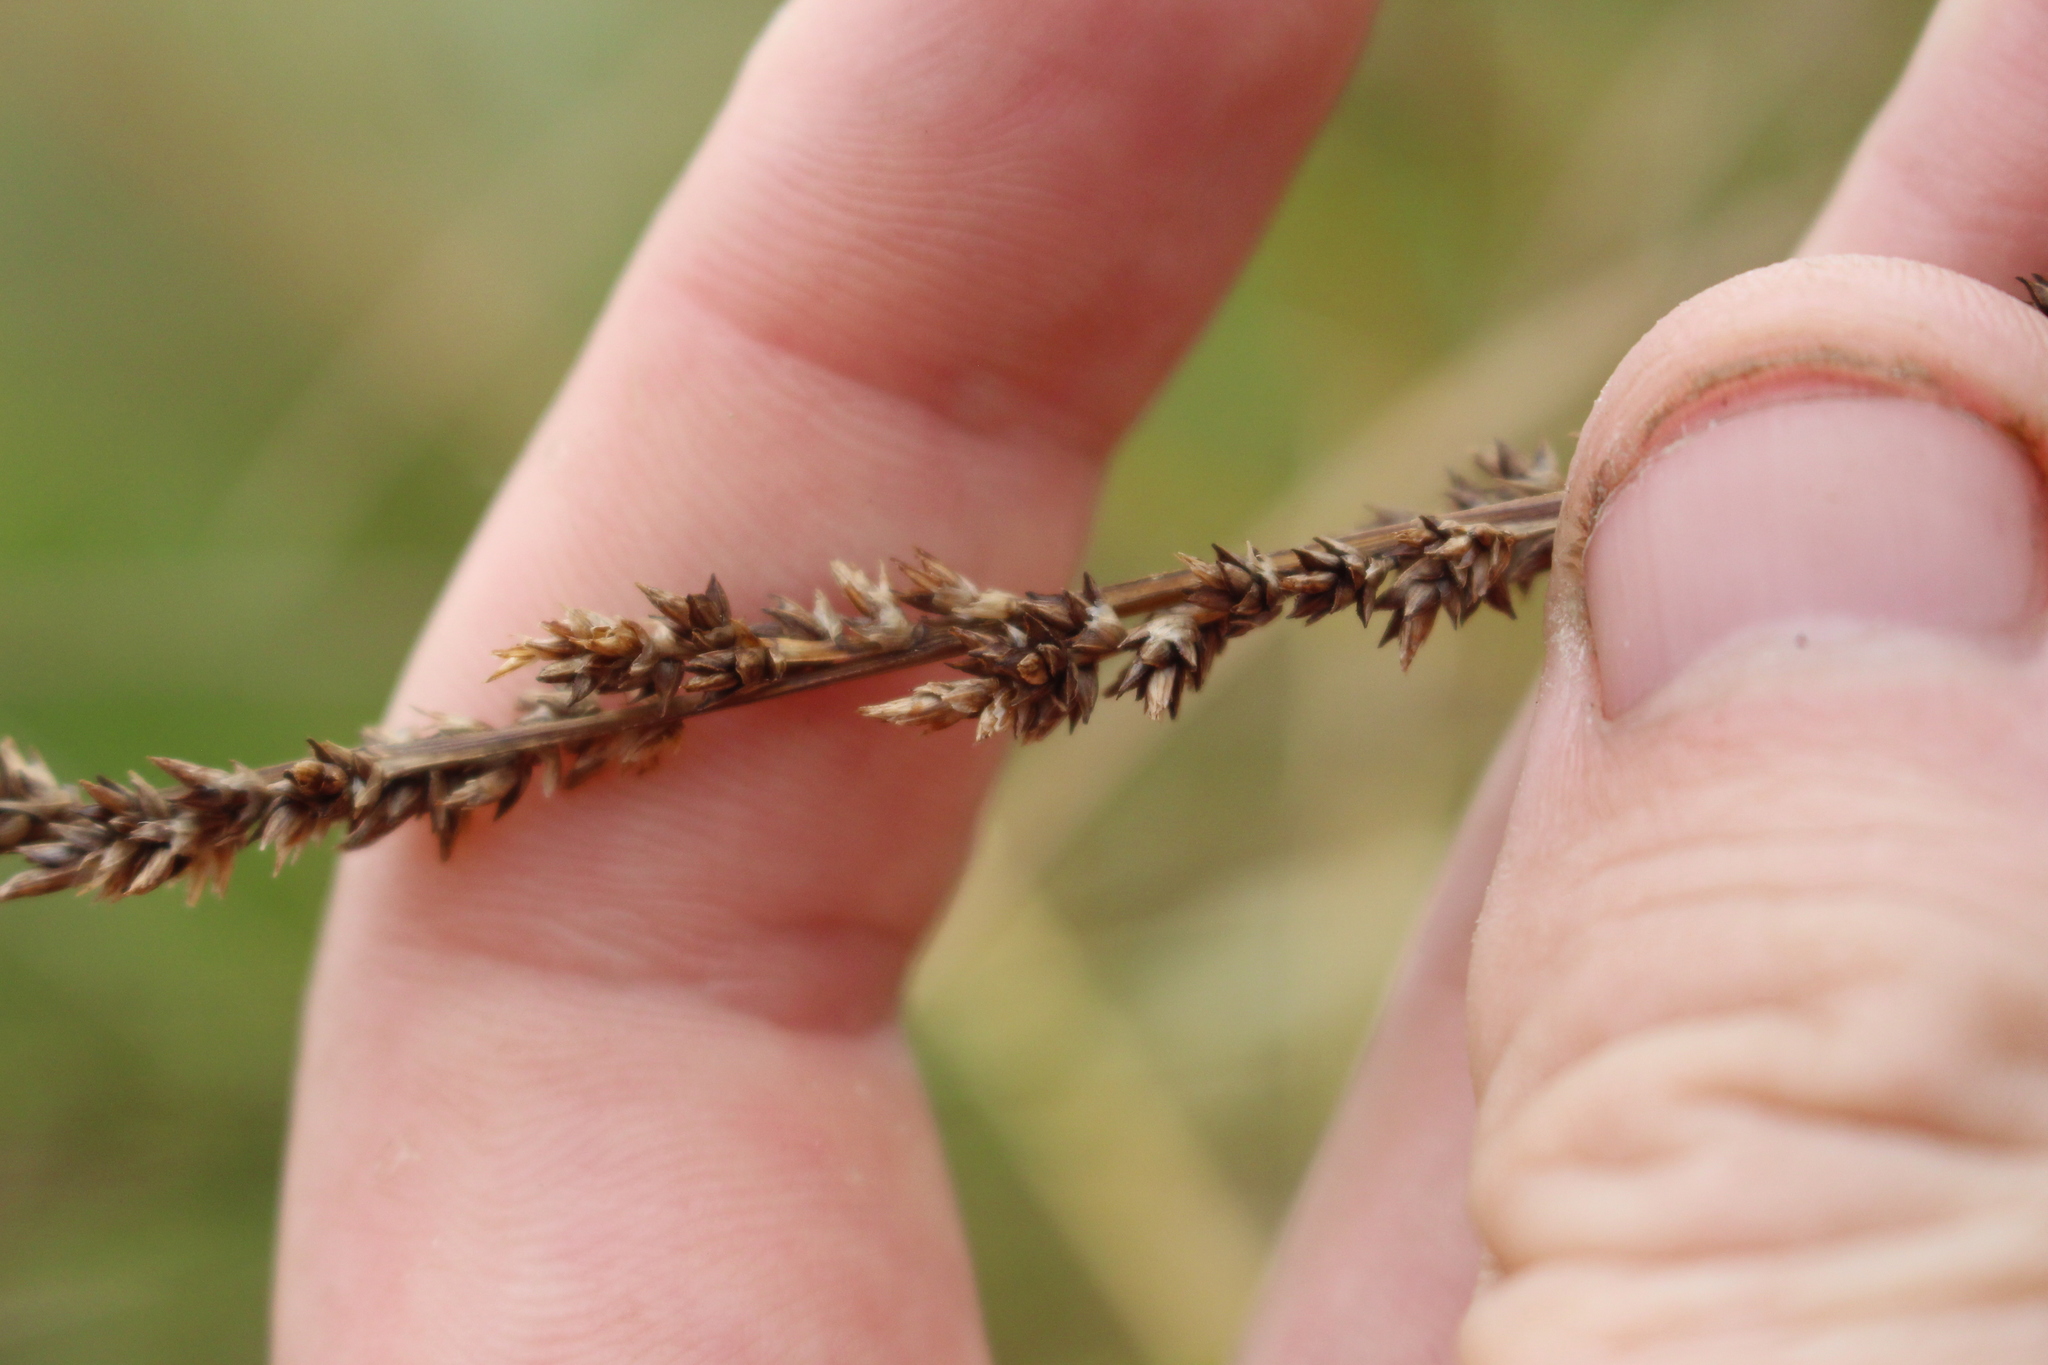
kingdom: Plantae
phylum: Tracheophyta
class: Liliopsida
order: Poales
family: Cyperaceae
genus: Carex
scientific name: Carex virgata
